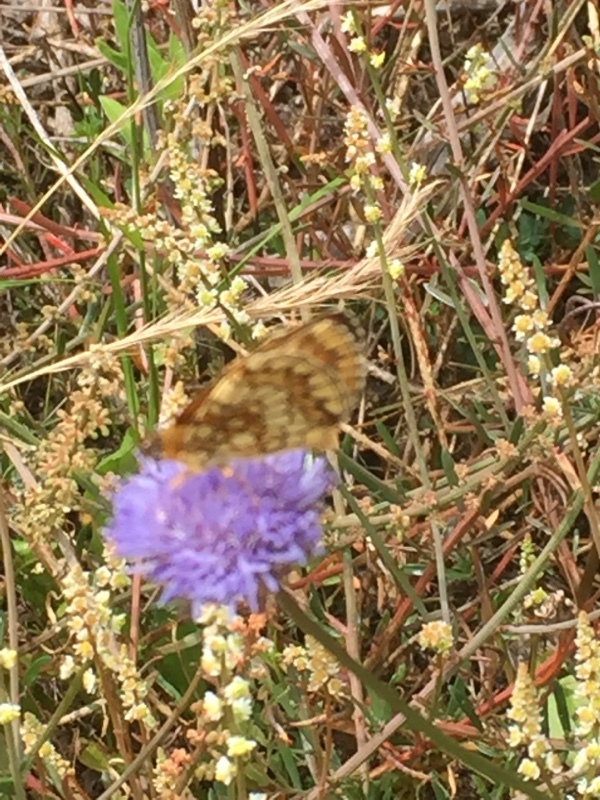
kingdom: Animalia
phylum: Arthropoda
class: Insecta
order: Lepidoptera
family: Nymphalidae
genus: Mellicta
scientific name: Mellicta athalia
